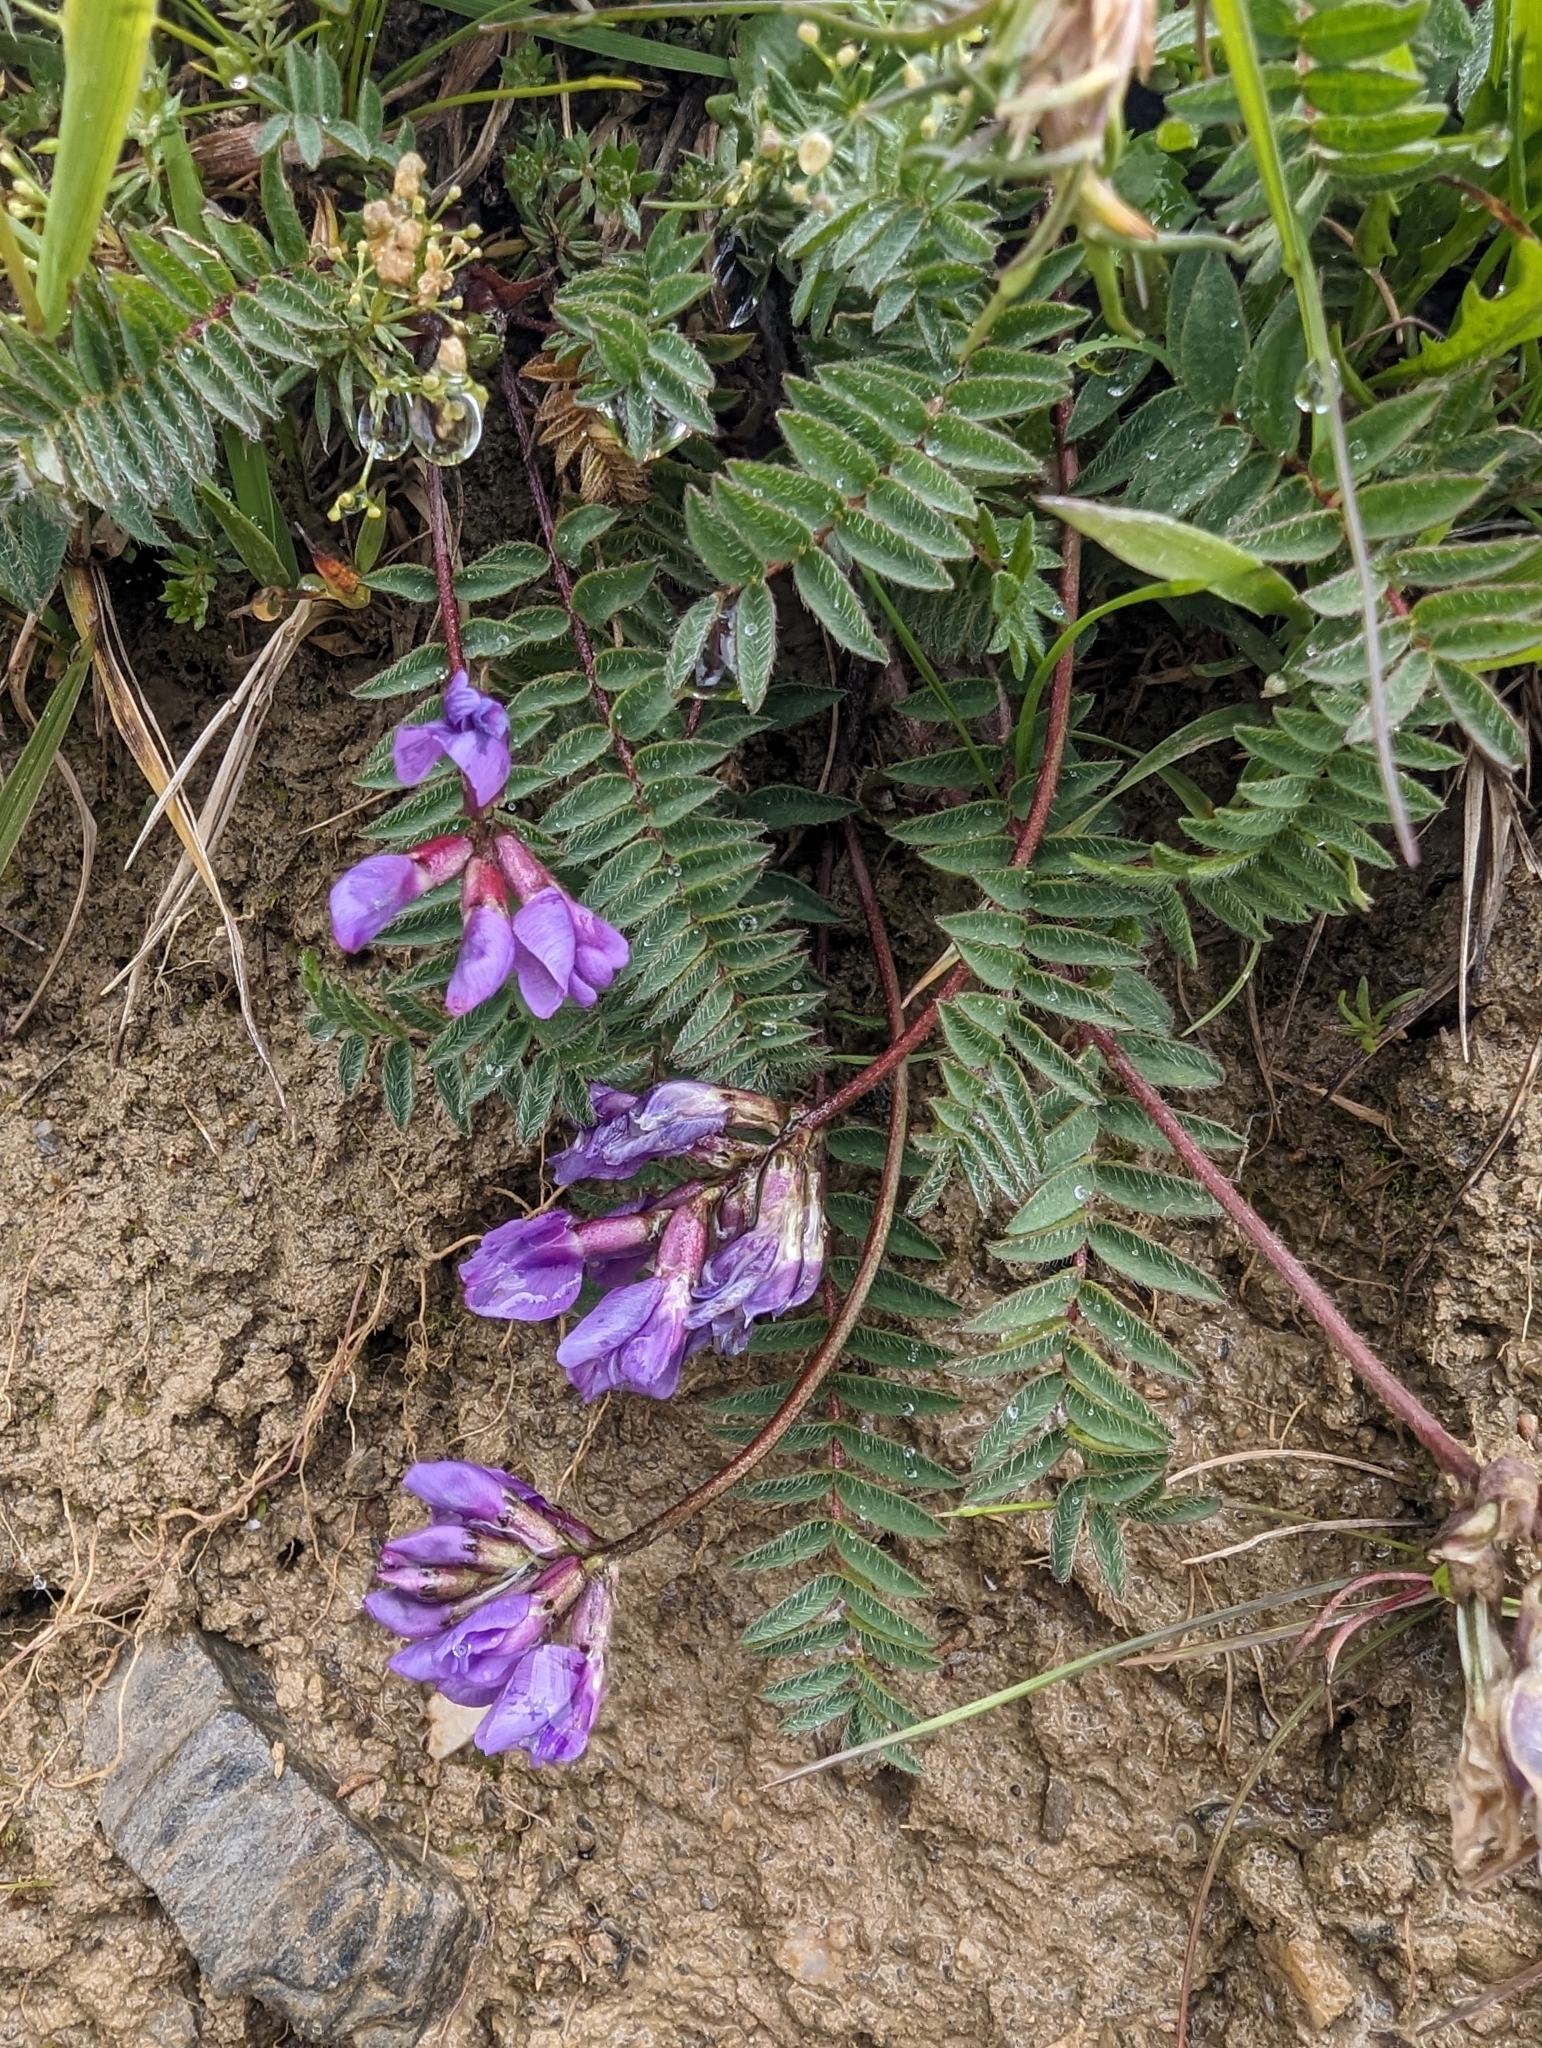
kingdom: Plantae
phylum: Tracheophyta
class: Magnoliopsida
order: Fabales
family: Fabaceae
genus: Oxytropis
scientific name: Oxytropis montana
